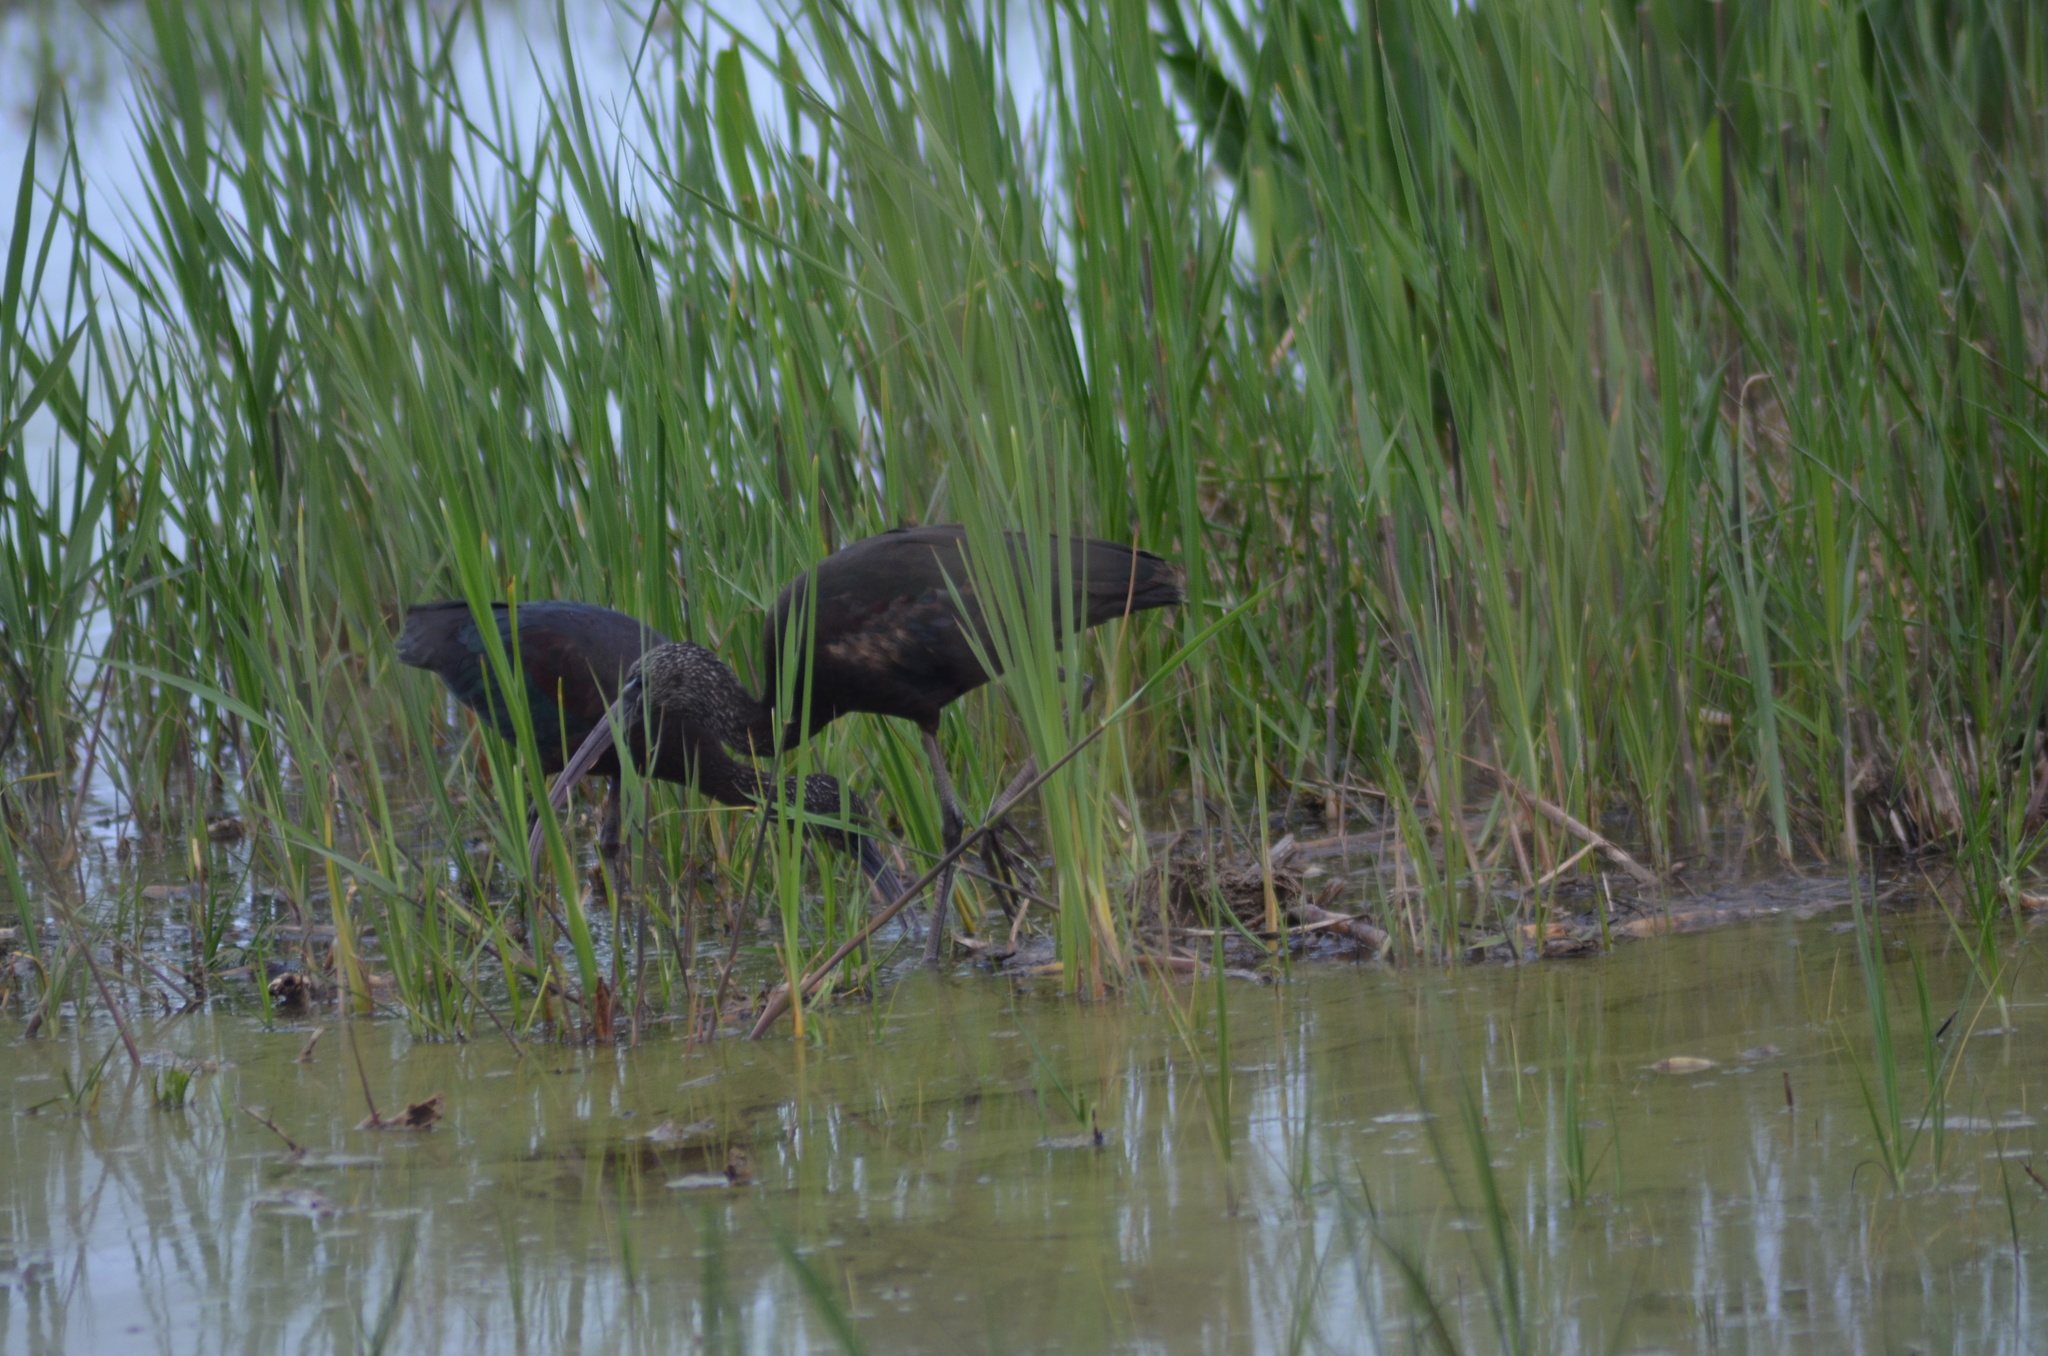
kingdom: Animalia
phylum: Chordata
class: Aves
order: Pelecaniformes
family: Threskiornithidae
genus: Plegadis
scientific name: Plegadis falcinellus
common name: Glossy ibis
